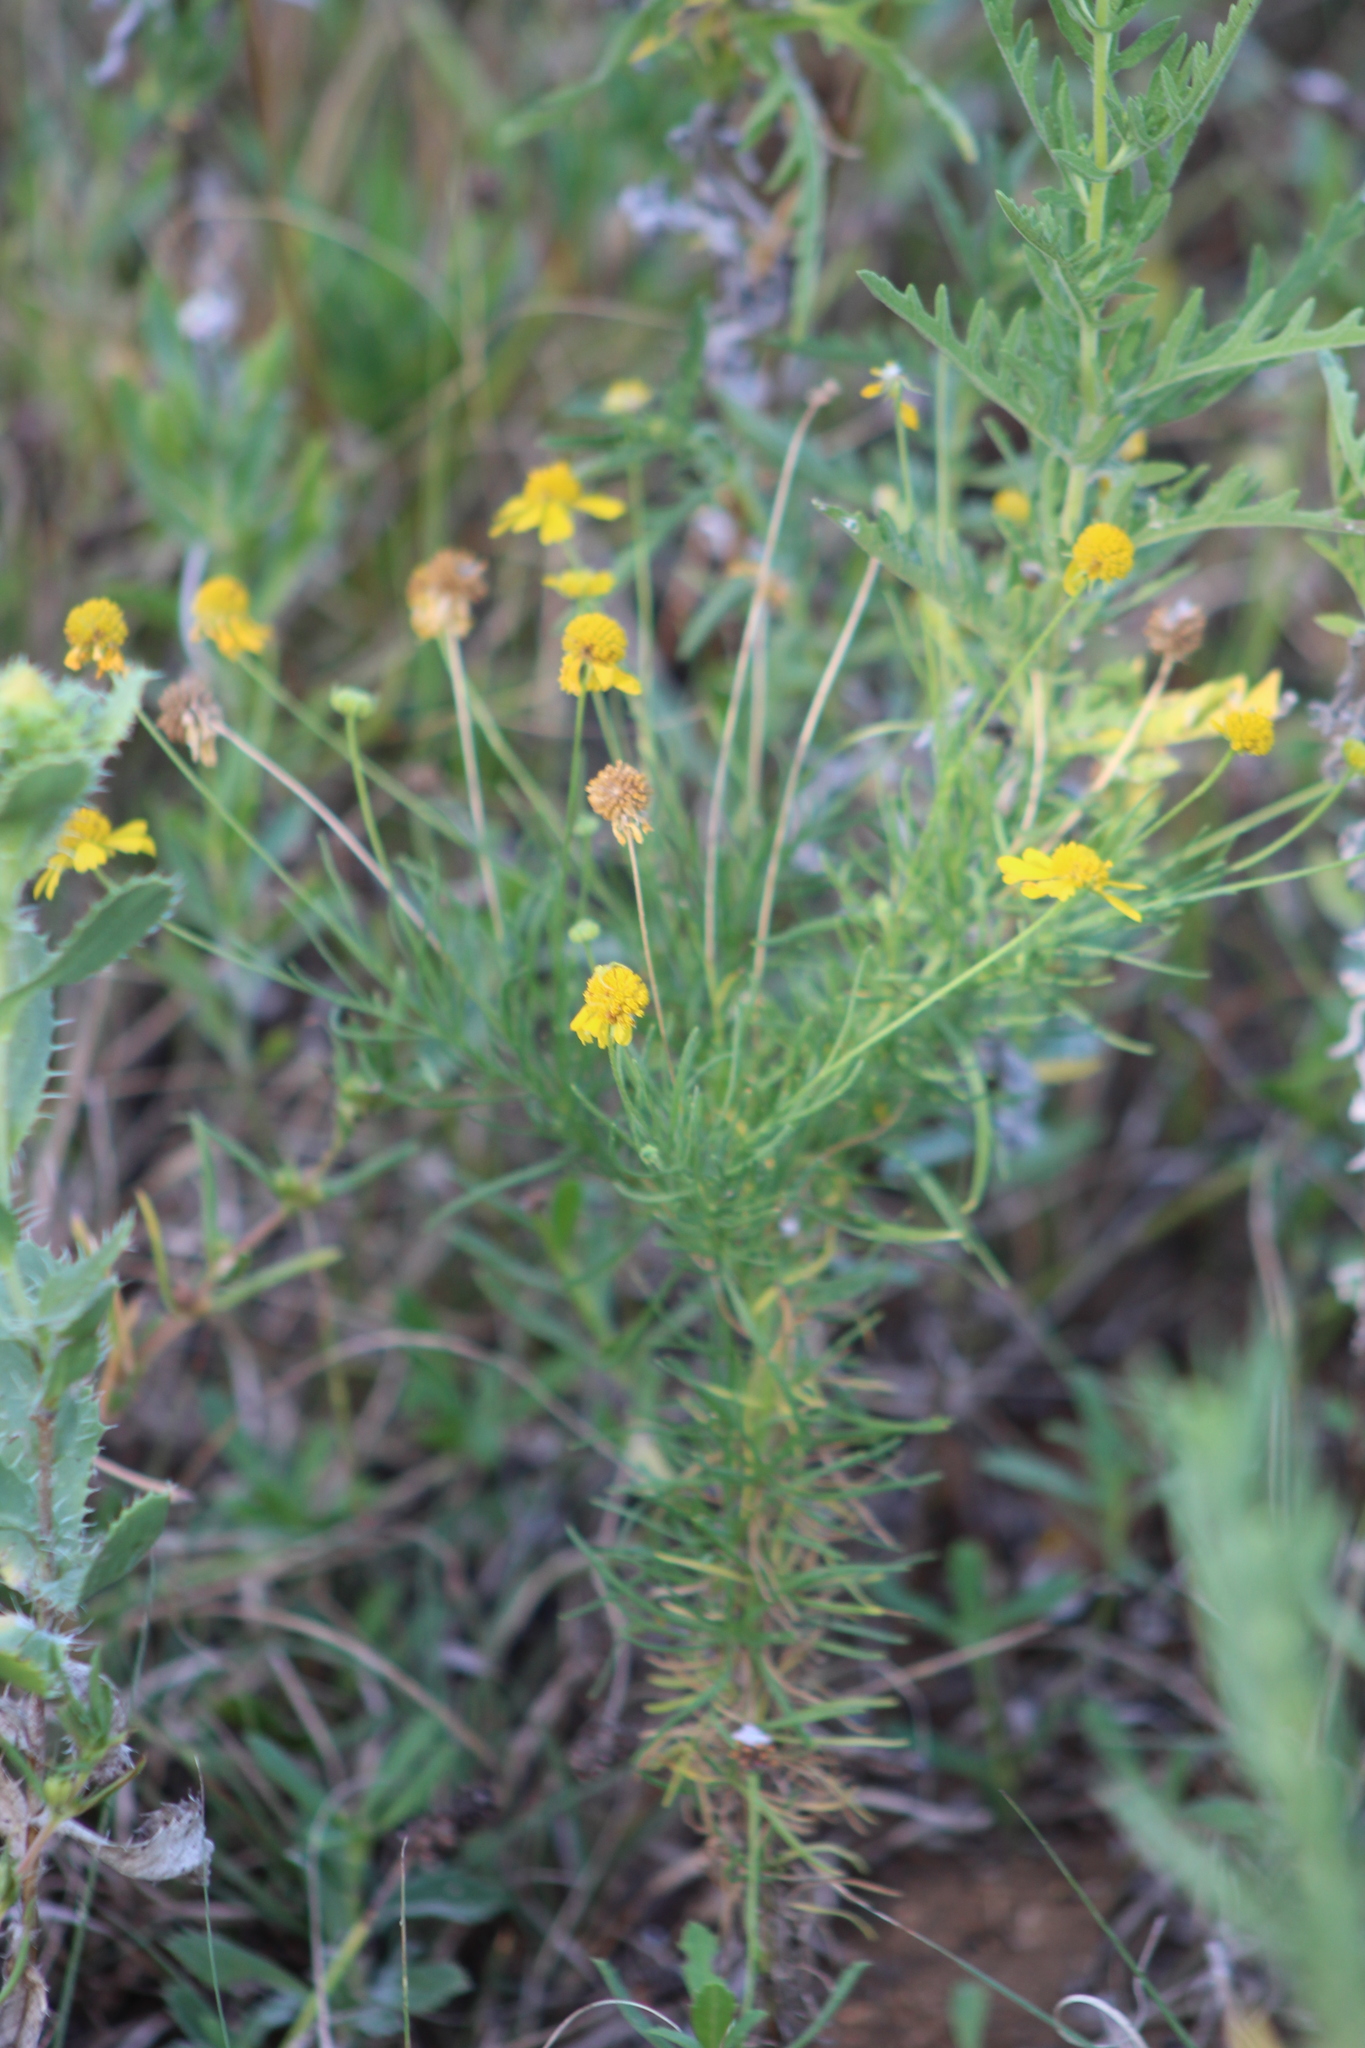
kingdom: Plantae
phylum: Tracheophyta
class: Magnoliopsida
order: Asterales
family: Asteraceae
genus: Helenium
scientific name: Helenium amarum
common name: Bitter sneezeweed
